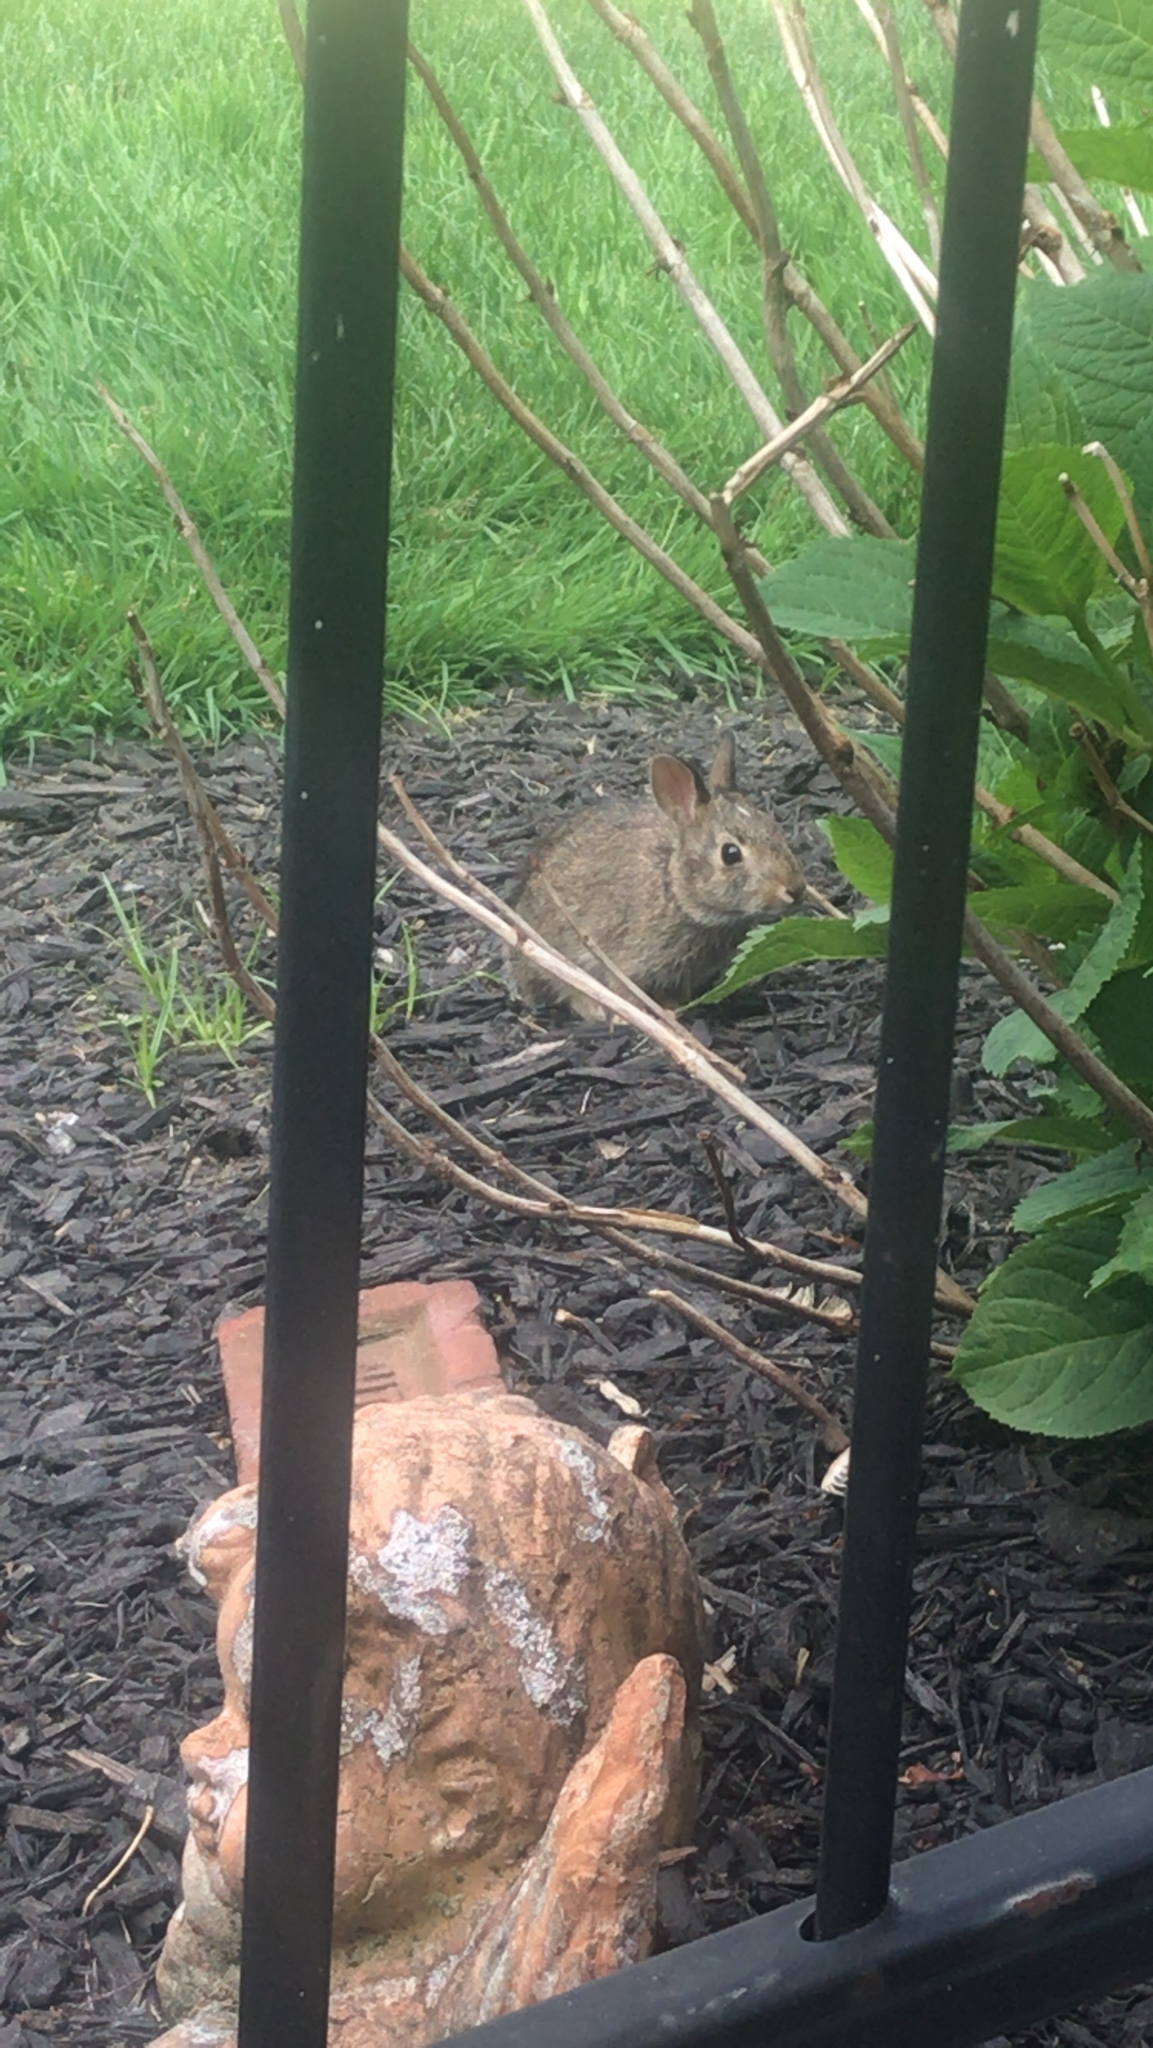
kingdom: Animalia
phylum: Chordata
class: Mammalia
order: Lagomorpha
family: Leporidae
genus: Sylvilagus
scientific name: Sylvilagus floridanus
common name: Eastern cottontail
